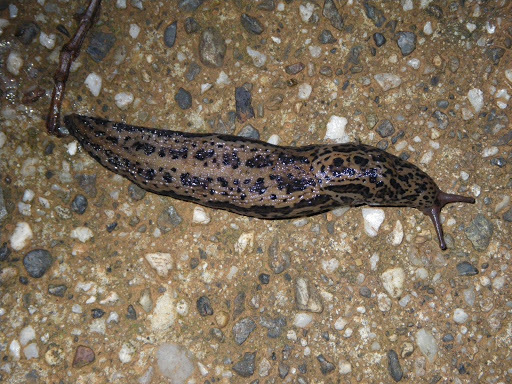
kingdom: Animalia
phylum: Mollusca
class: Gastropoda
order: Stylommatophora
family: Limacidae
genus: Limax
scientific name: Limax maximus
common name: Great grey slug
